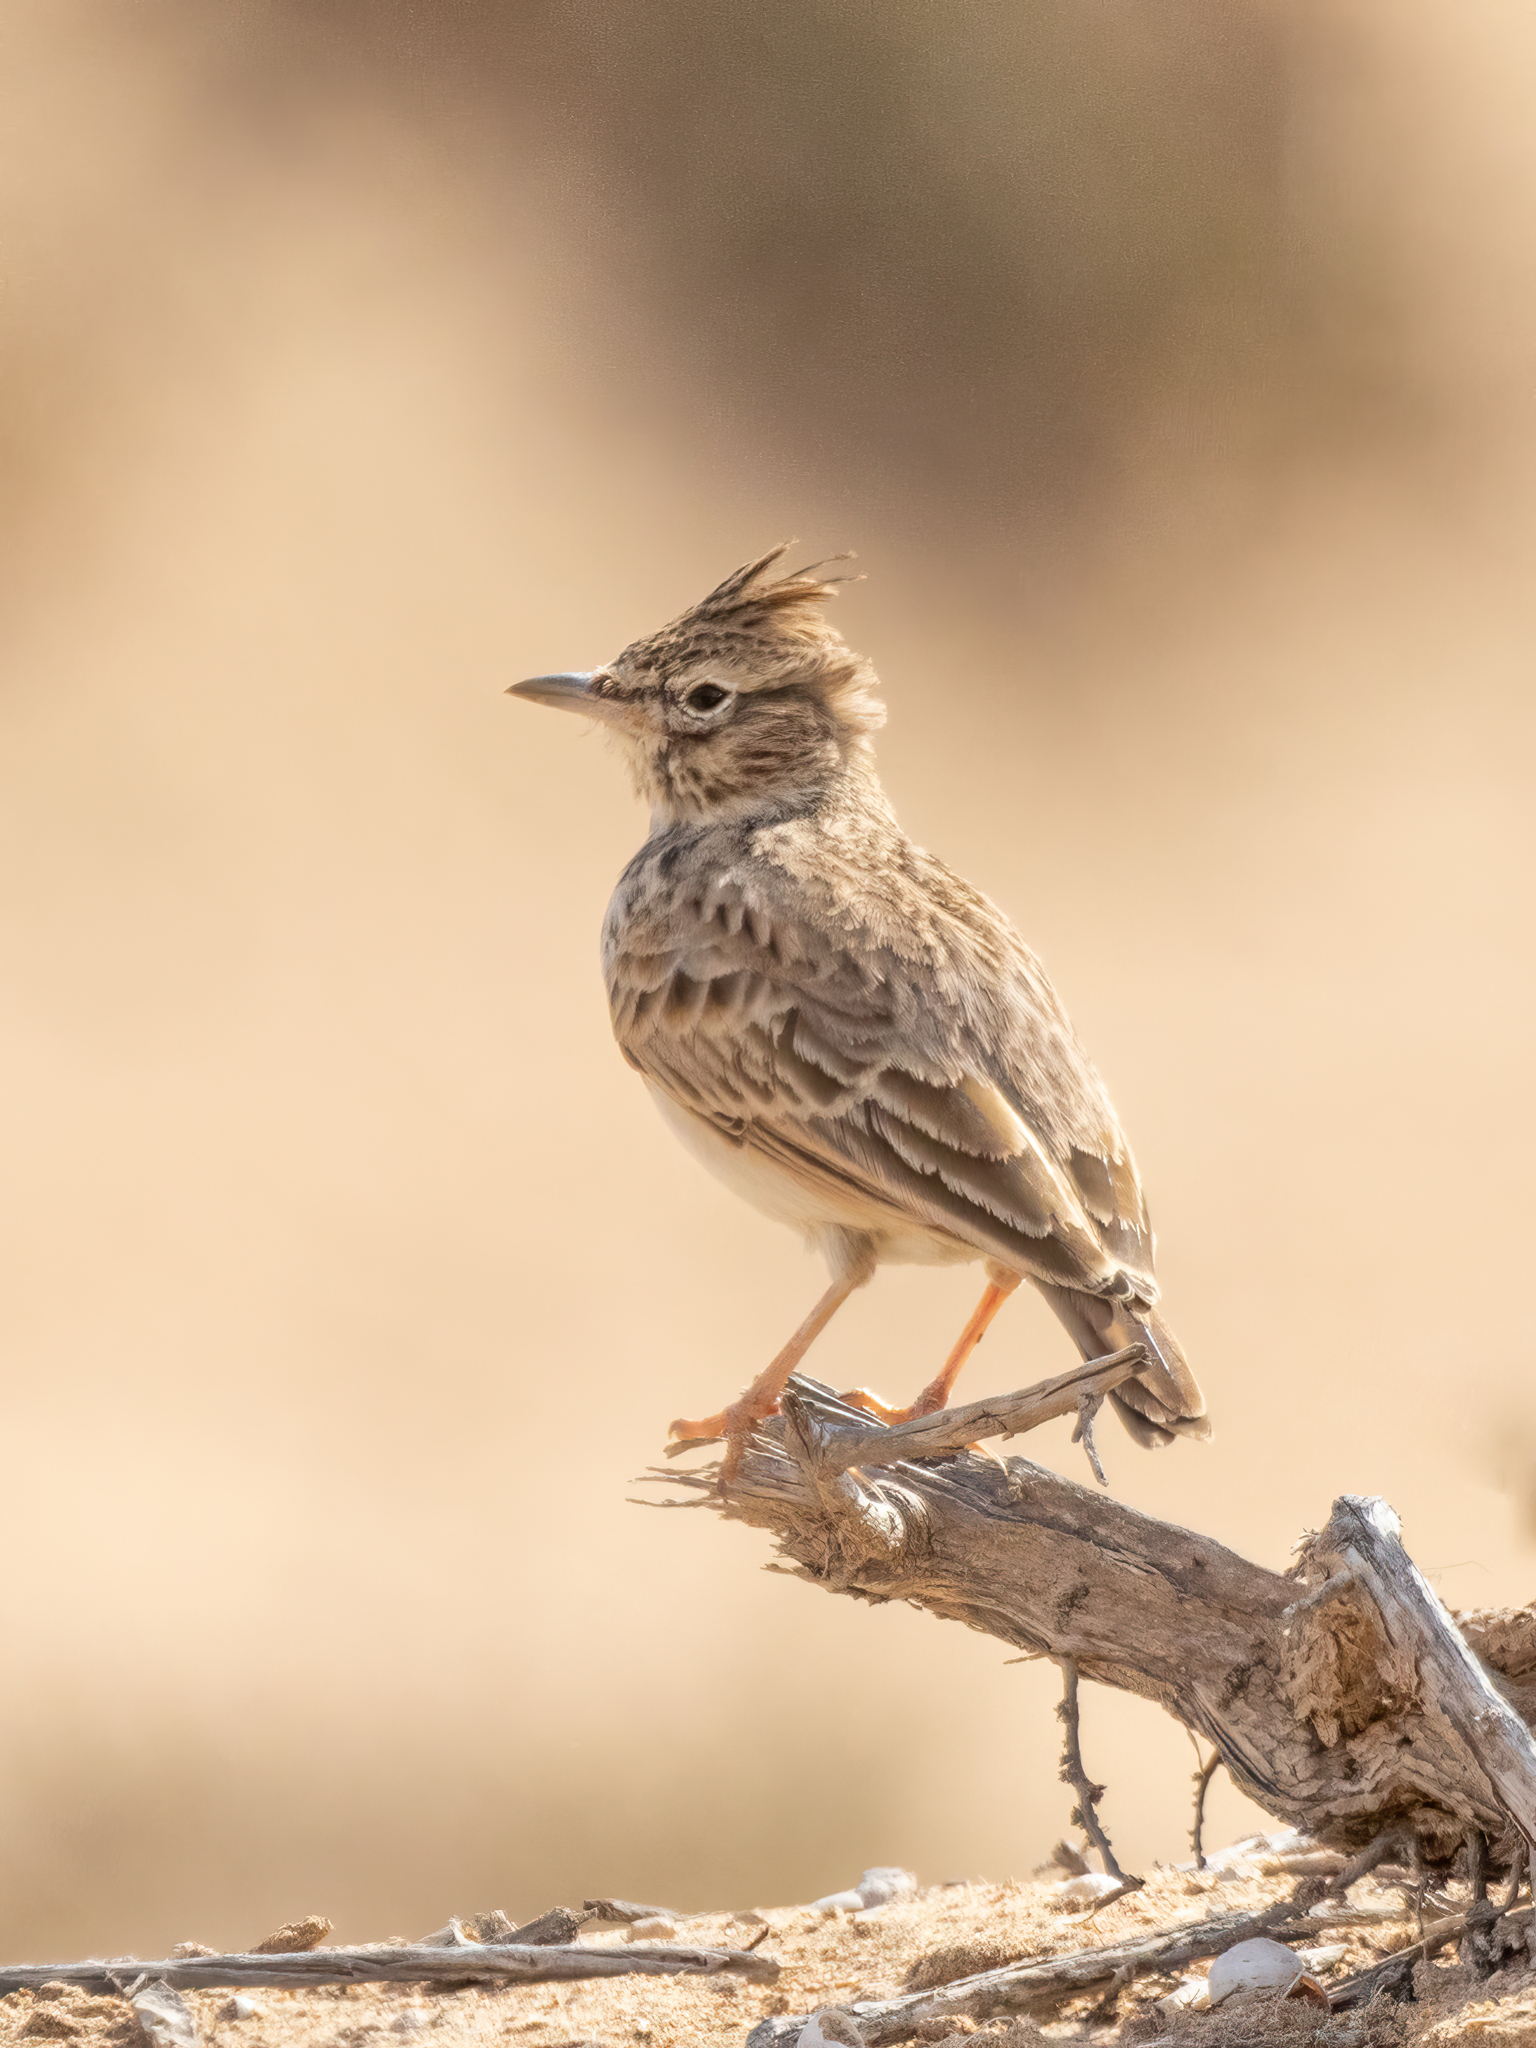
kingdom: Animalia
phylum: Chordata
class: Aves
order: Passeriformes
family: Alaudidae
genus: Galerida
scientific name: Galerida theklae
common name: Thekla lark
